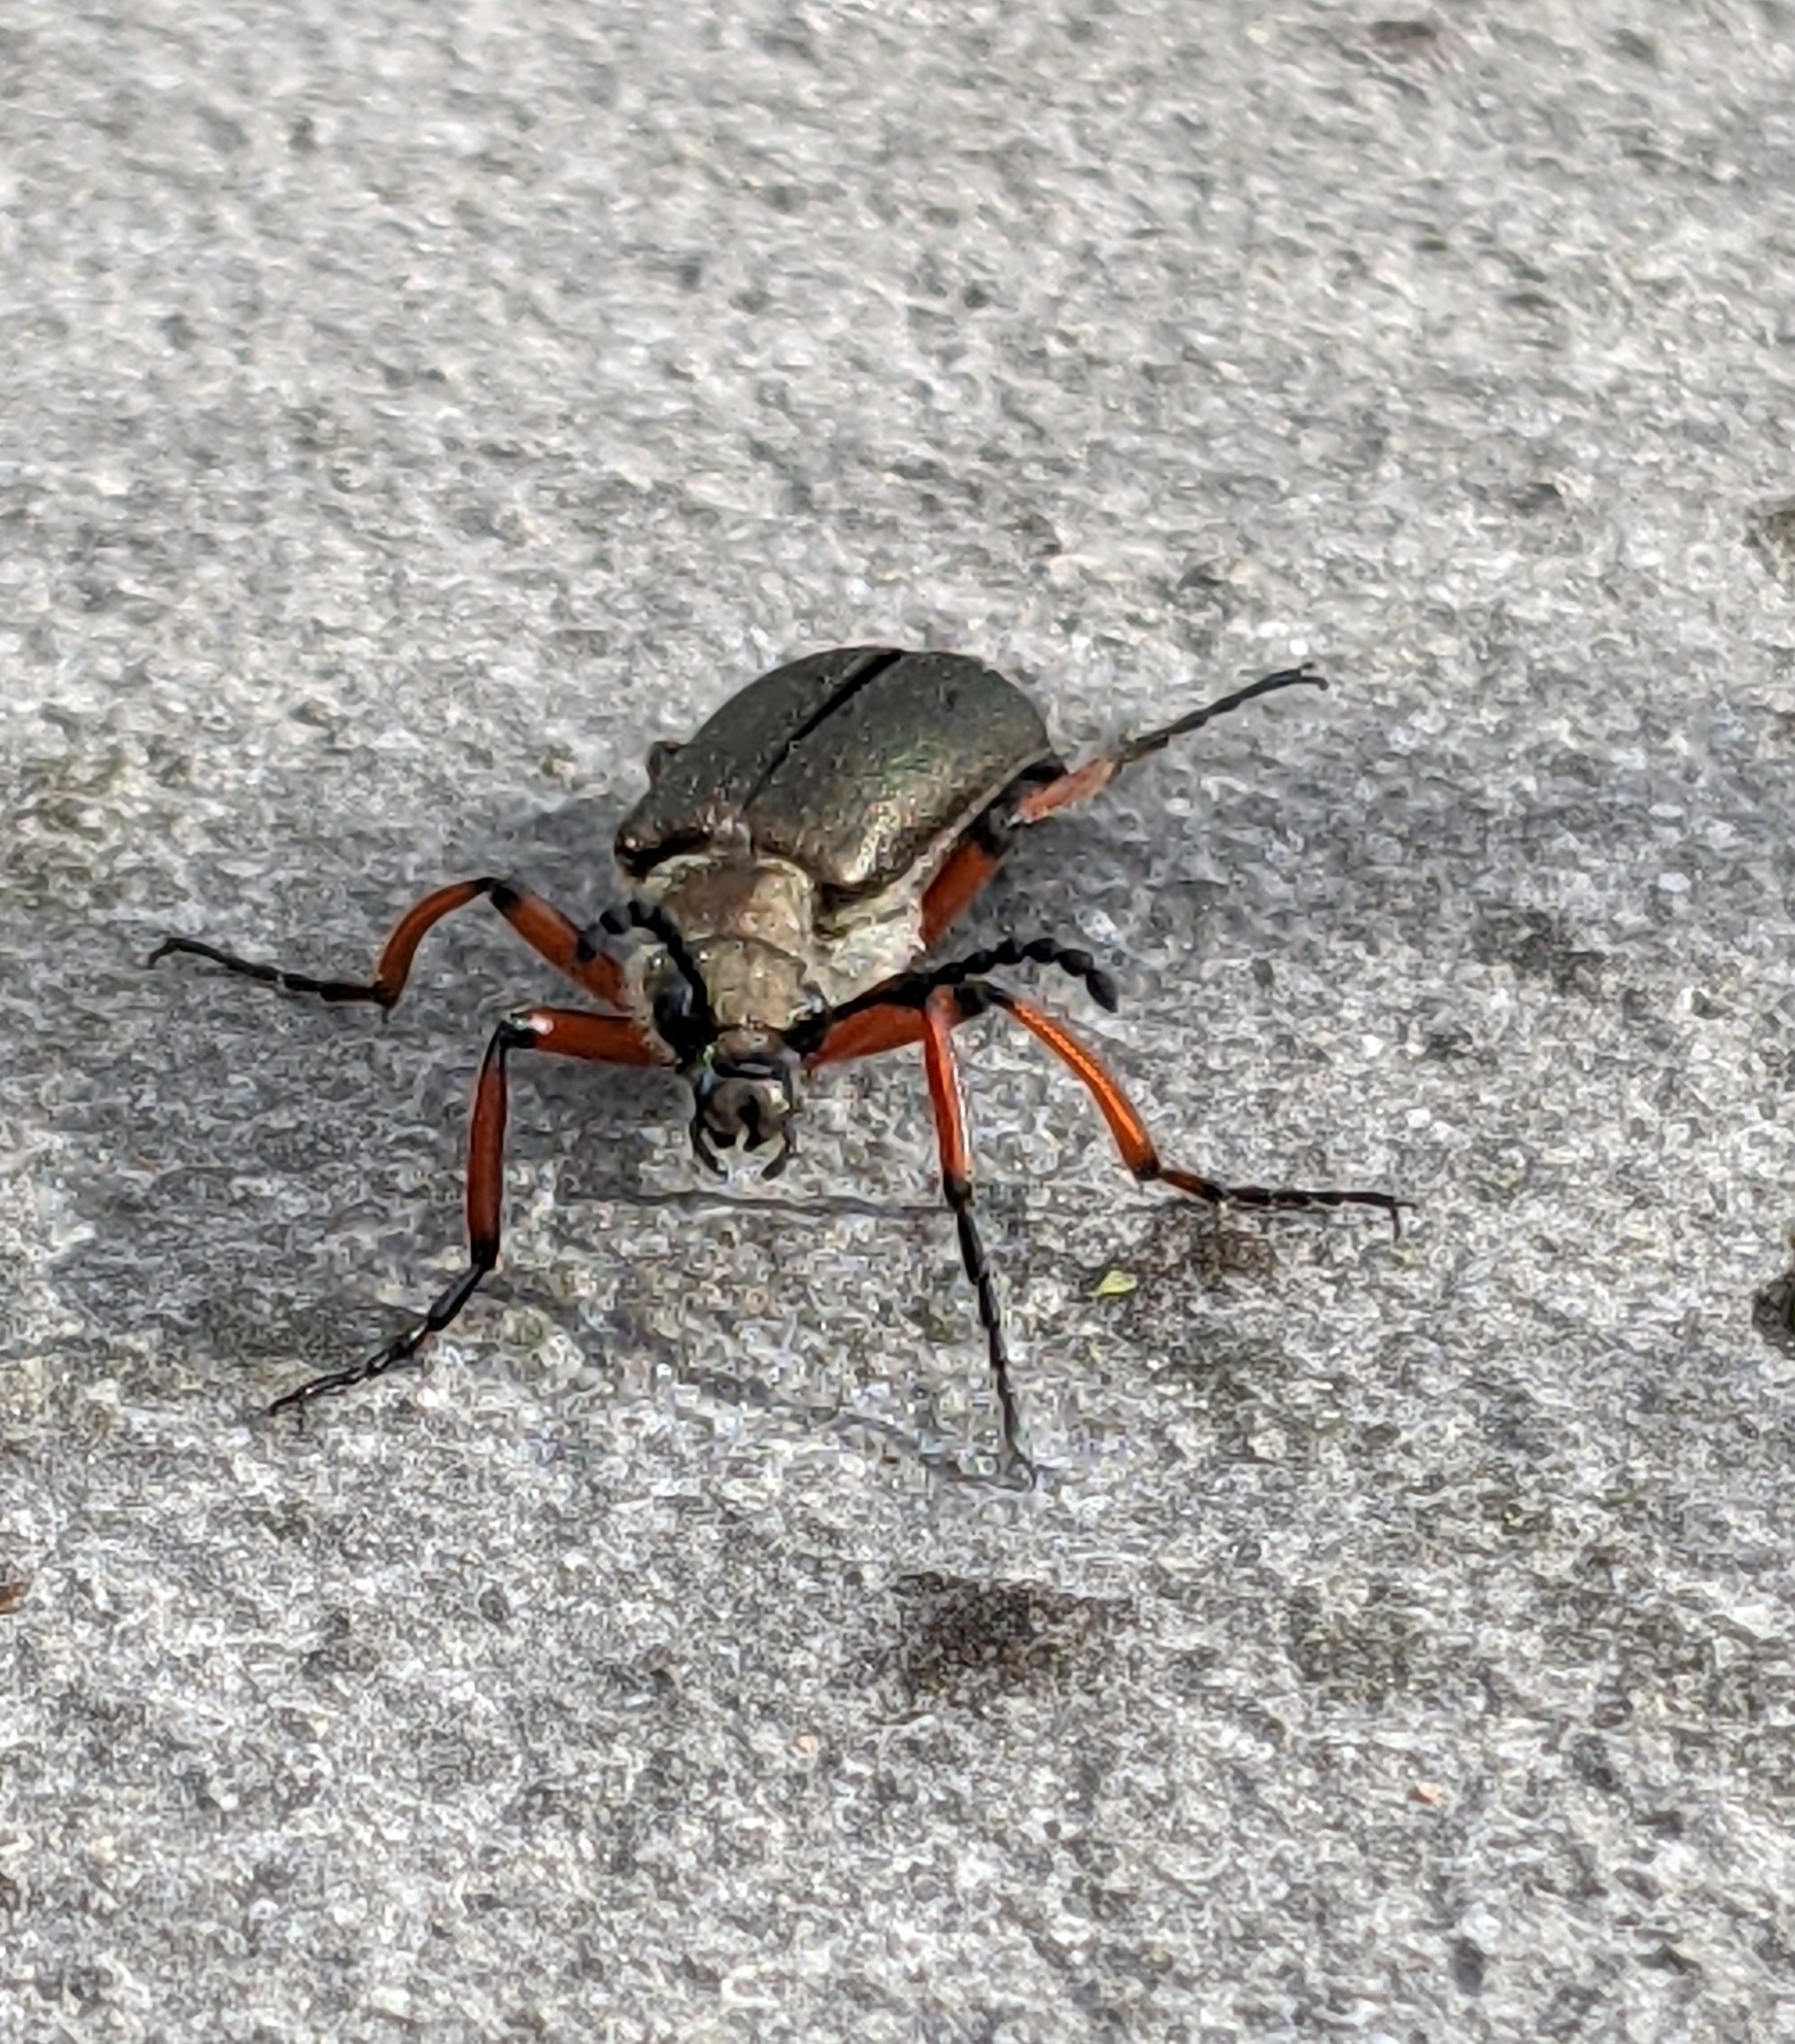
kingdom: Animalia
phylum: Arthropoda
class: Insecta
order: Coleoptera
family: Meloidae
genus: Lytta
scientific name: Lytta aenea
